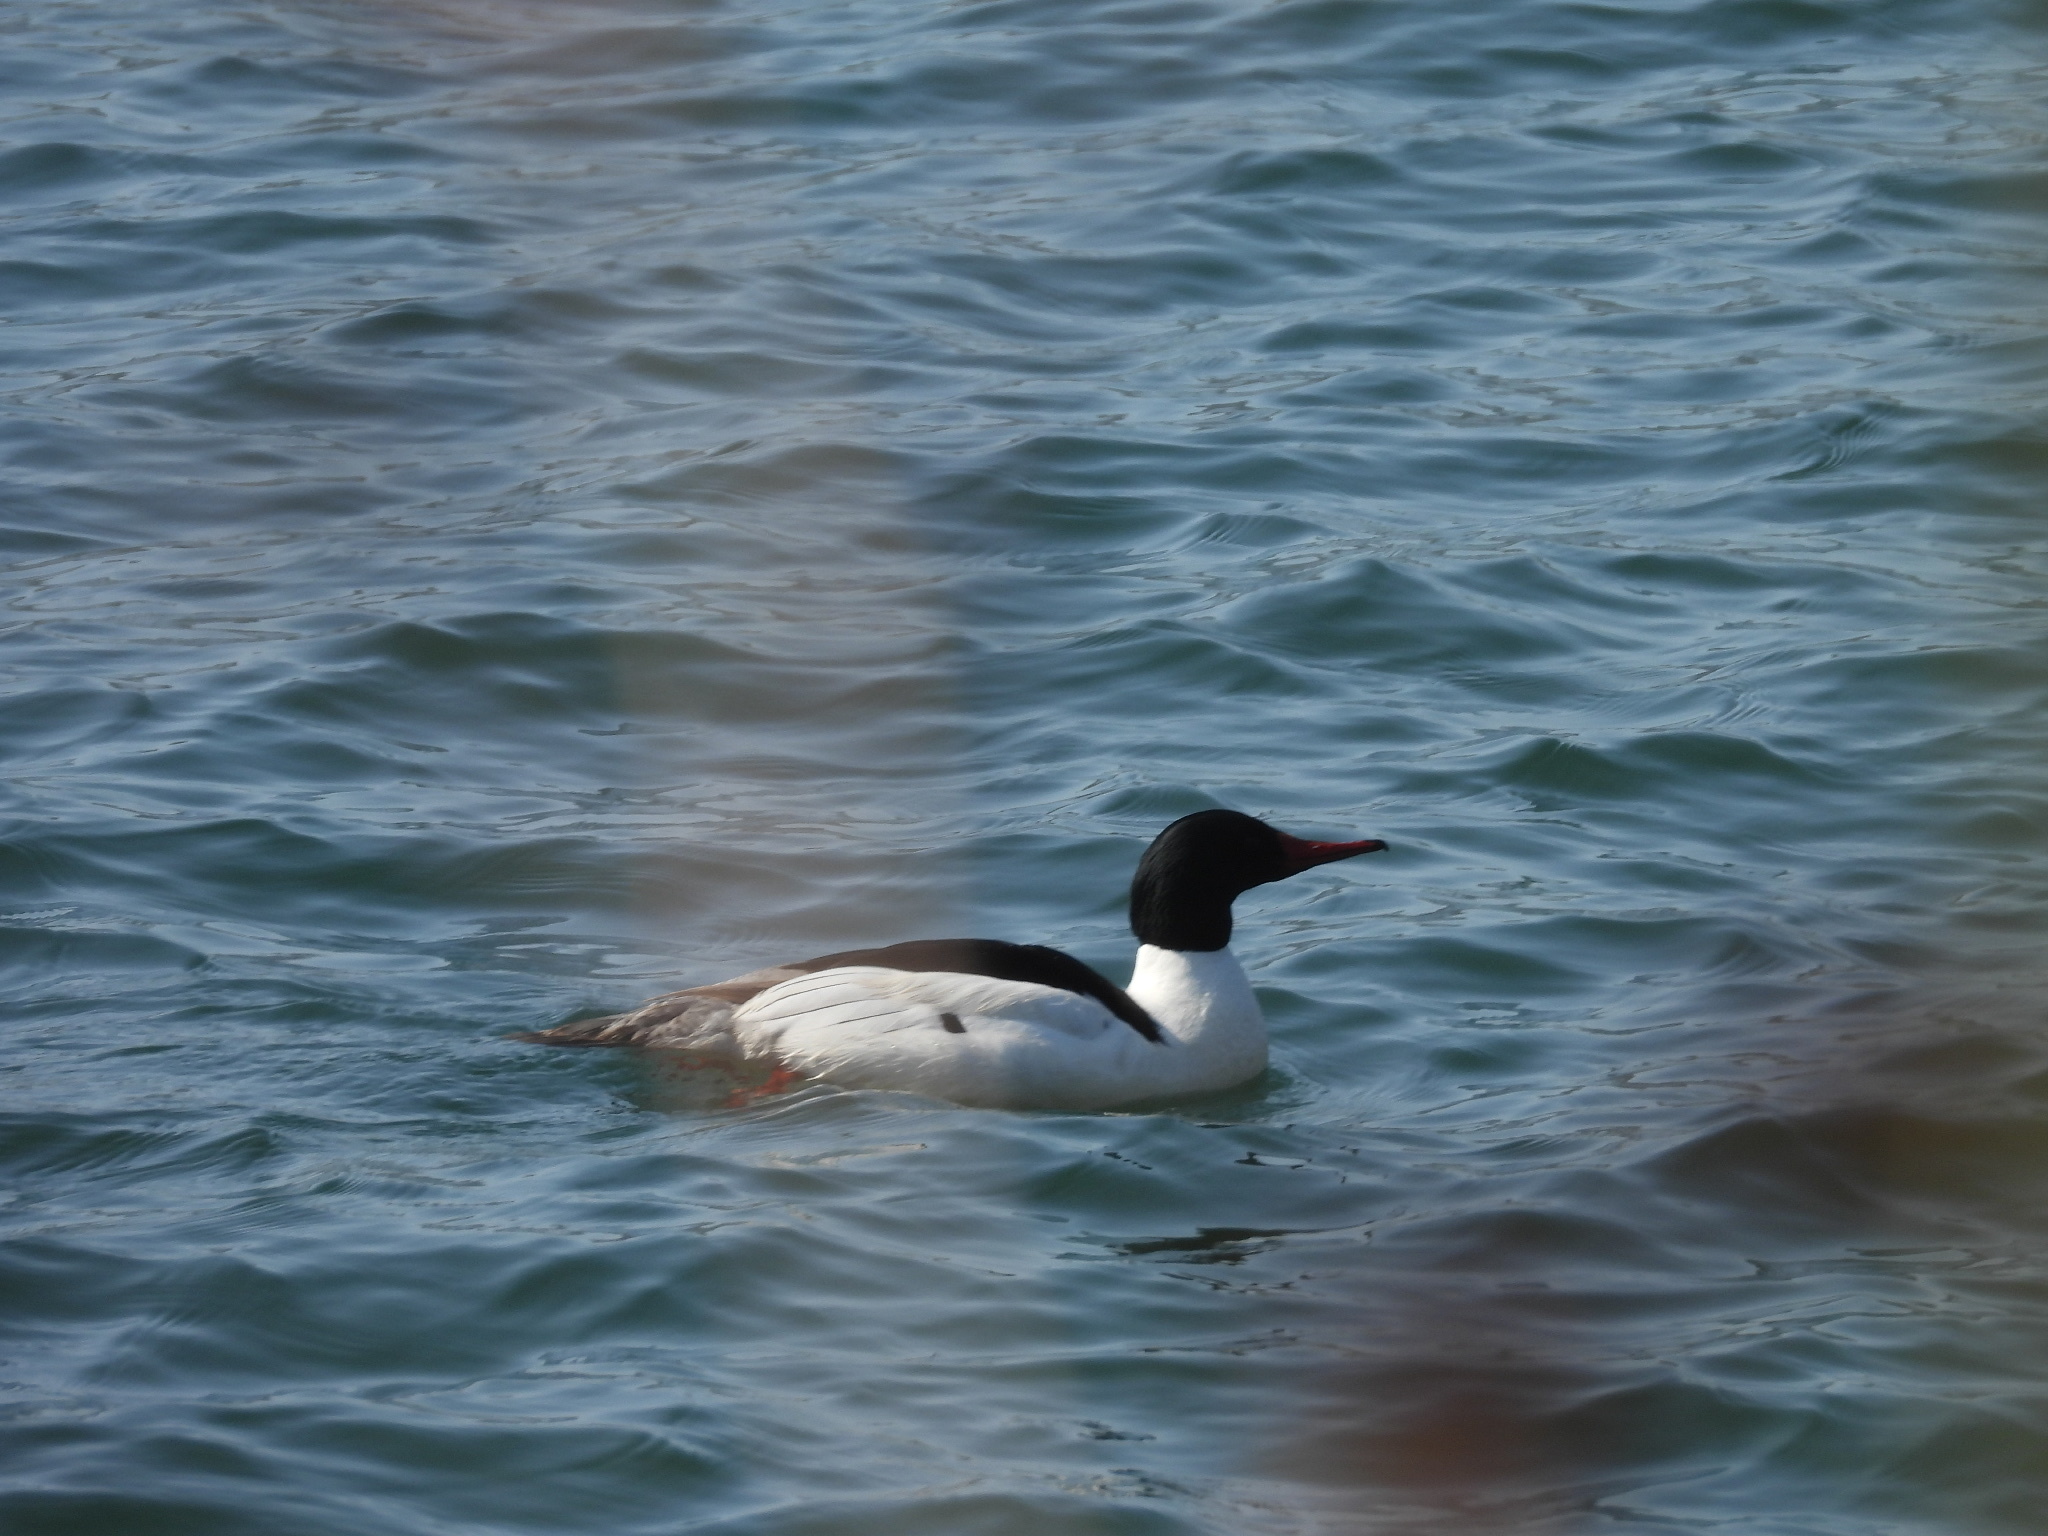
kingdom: Animalia
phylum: Chordata
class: Aves
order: Anseriformes
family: Anatidae
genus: Mergus
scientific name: Mergus merganser
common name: Common merganser
